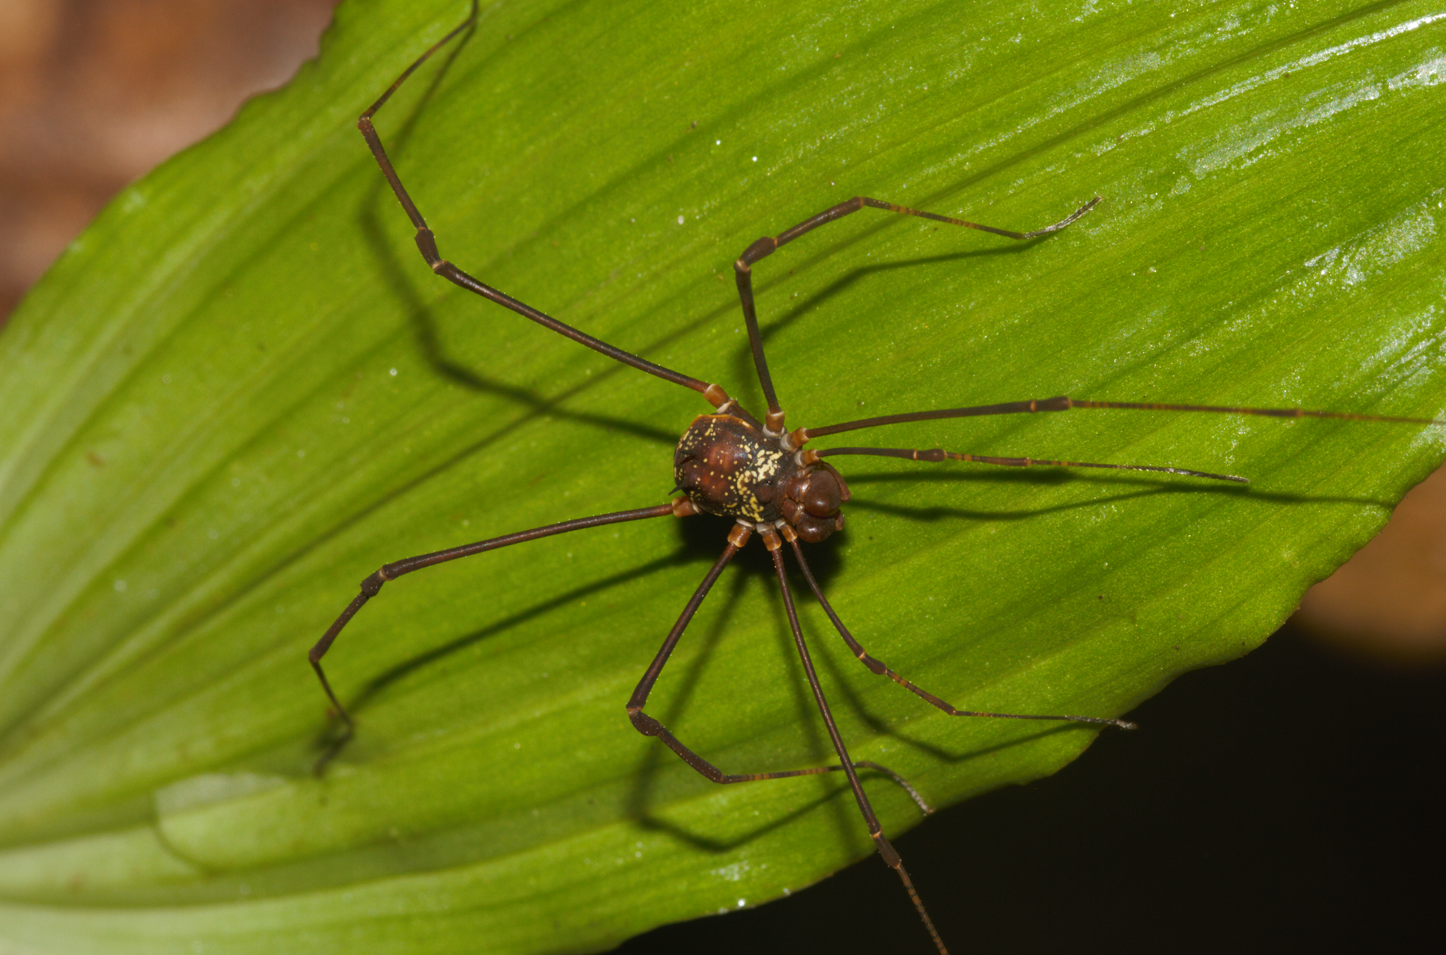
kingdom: Animalia
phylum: Arthropoda
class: Arachnida
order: Opiliones
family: Cosmetidae
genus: Paecilaema
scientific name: Paecilaema c-insignitum
